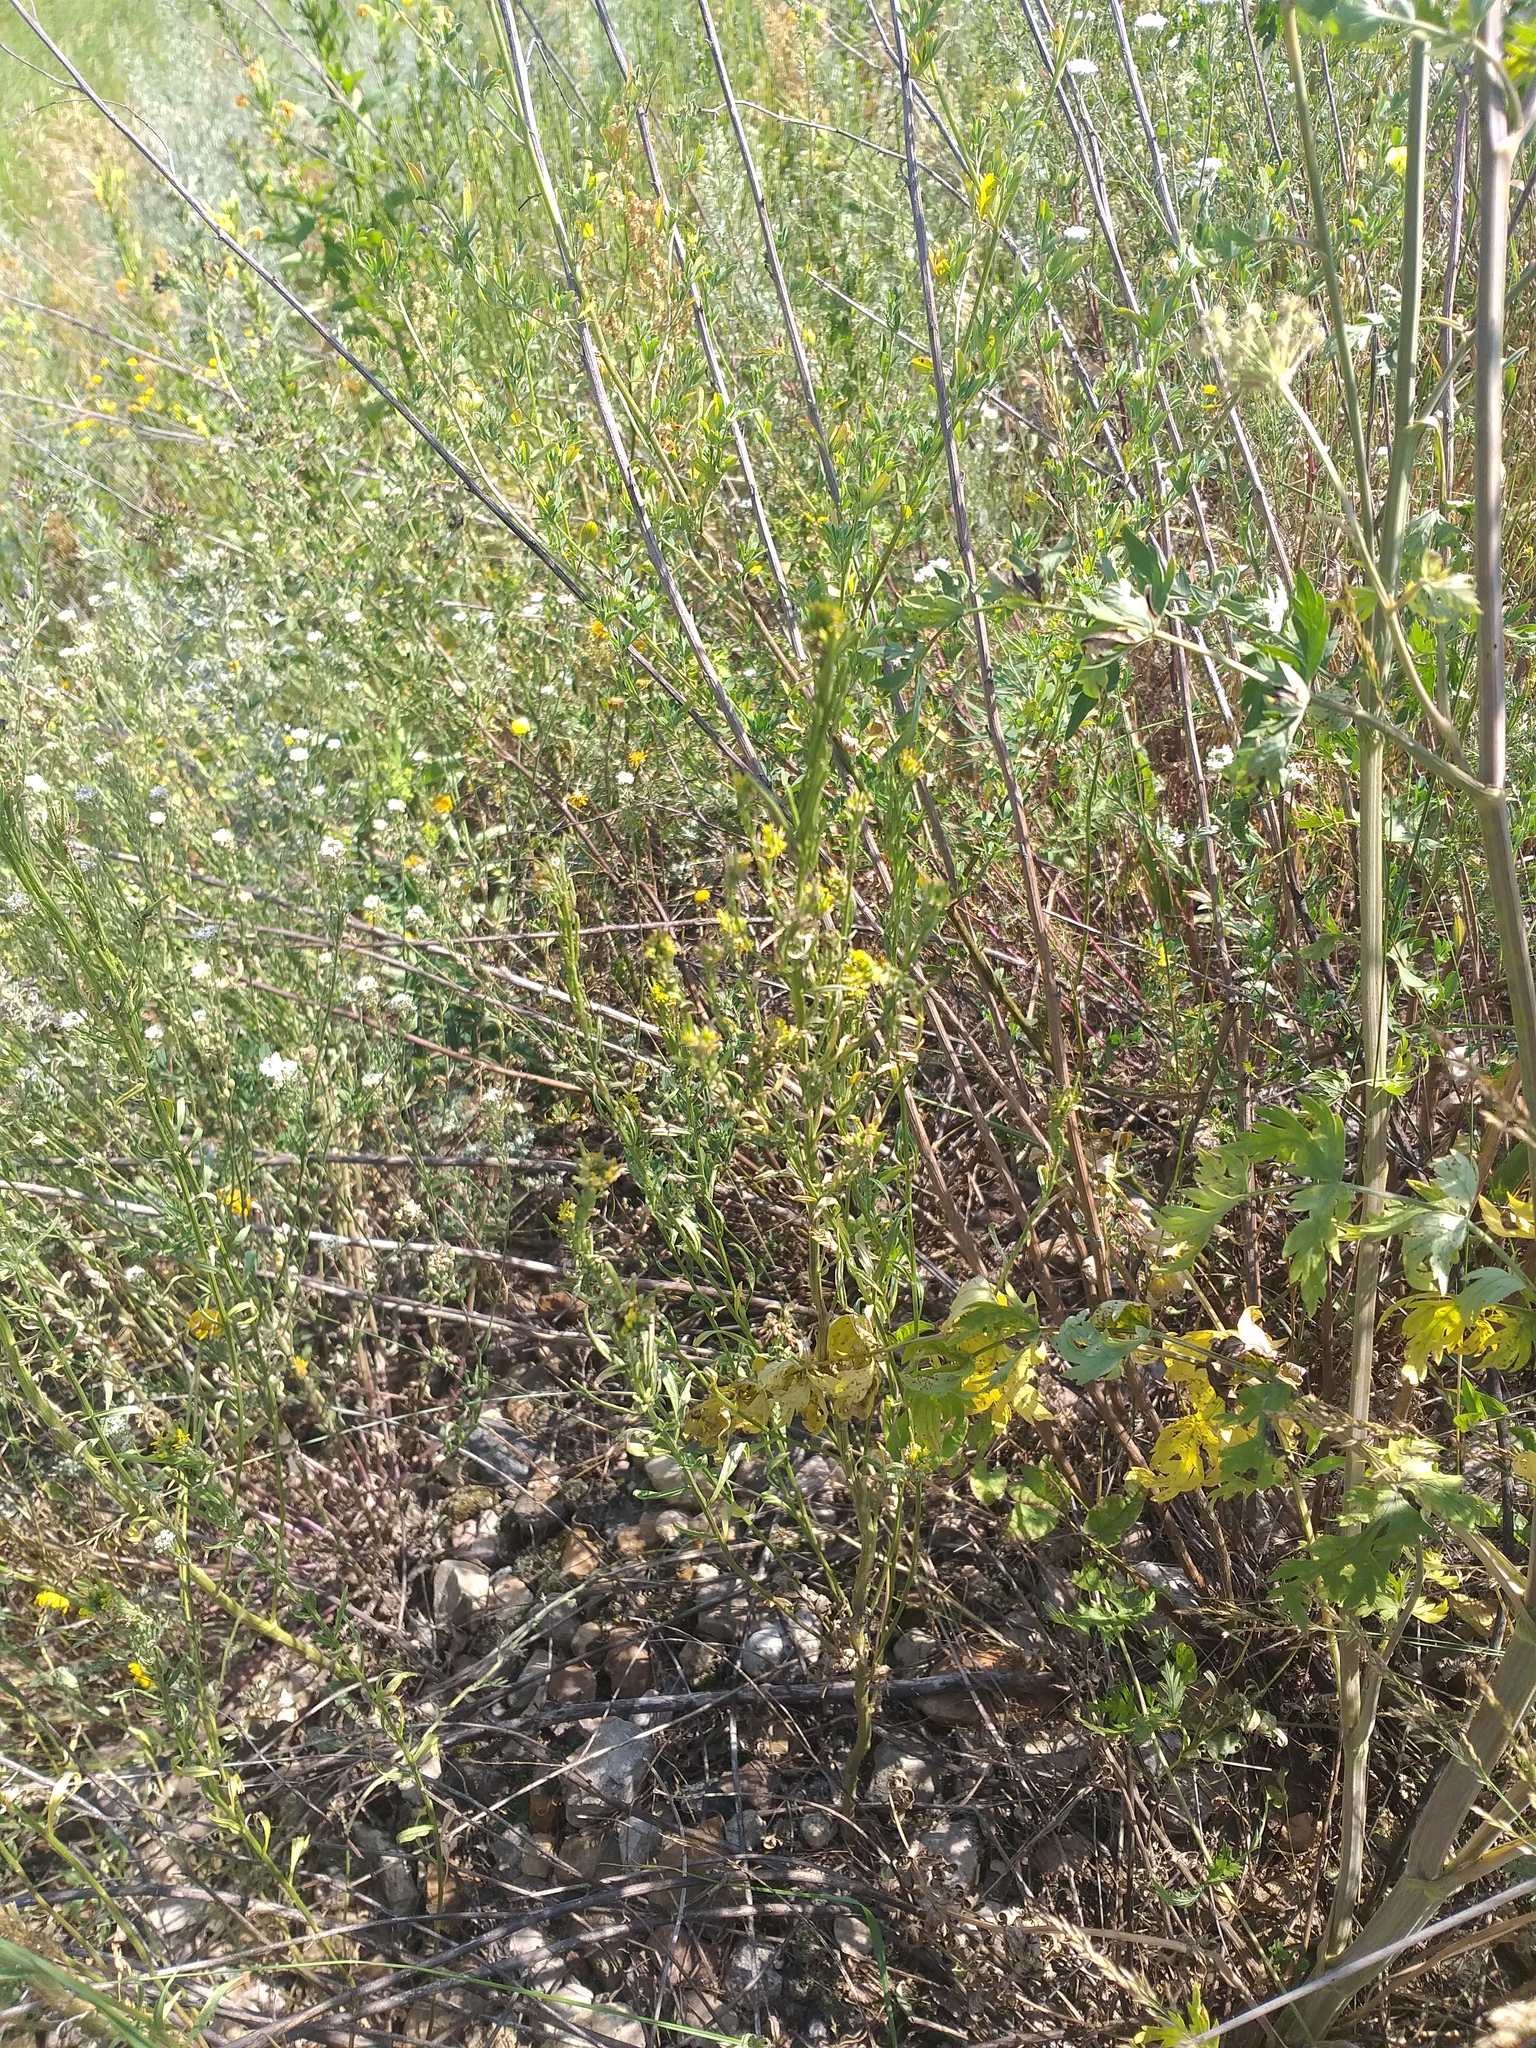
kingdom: Plantae
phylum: Tracheophyta
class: Magnoliopsida
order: Brassicales
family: Brassicaceae
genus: Erysimum
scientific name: Erysimum hieraciifolium
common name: European wallflower
